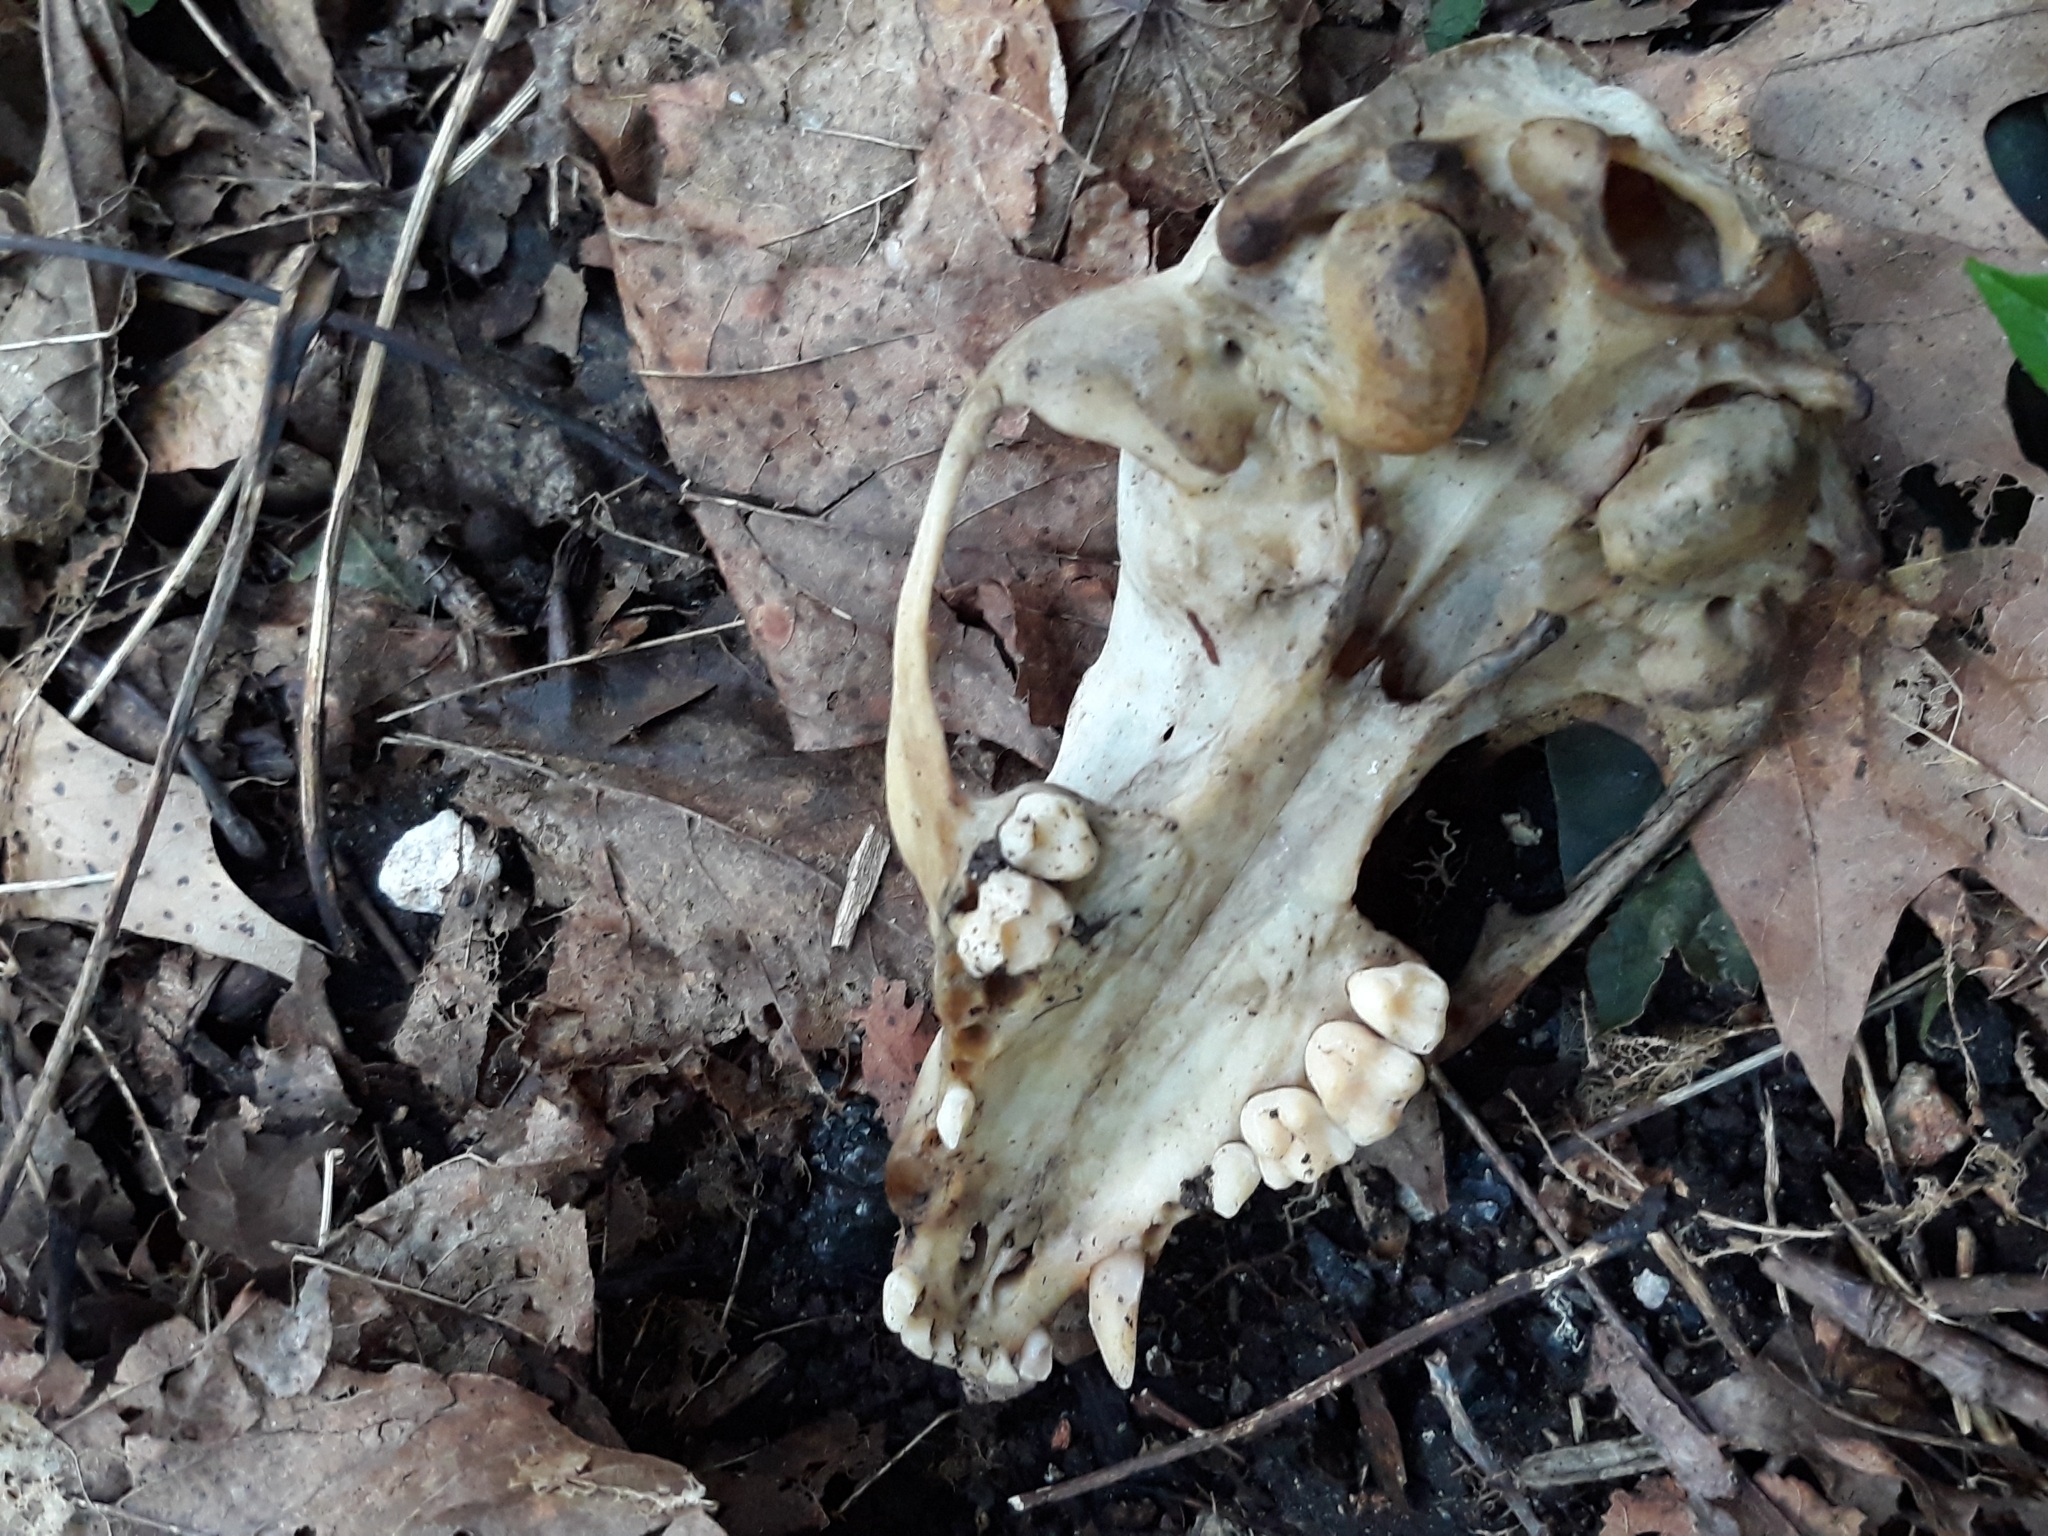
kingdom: Animalia
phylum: Chordata
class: Mammalia
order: Carnivora
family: Procyonidae
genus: Procyon
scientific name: Procyon lotor
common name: Raccoon
